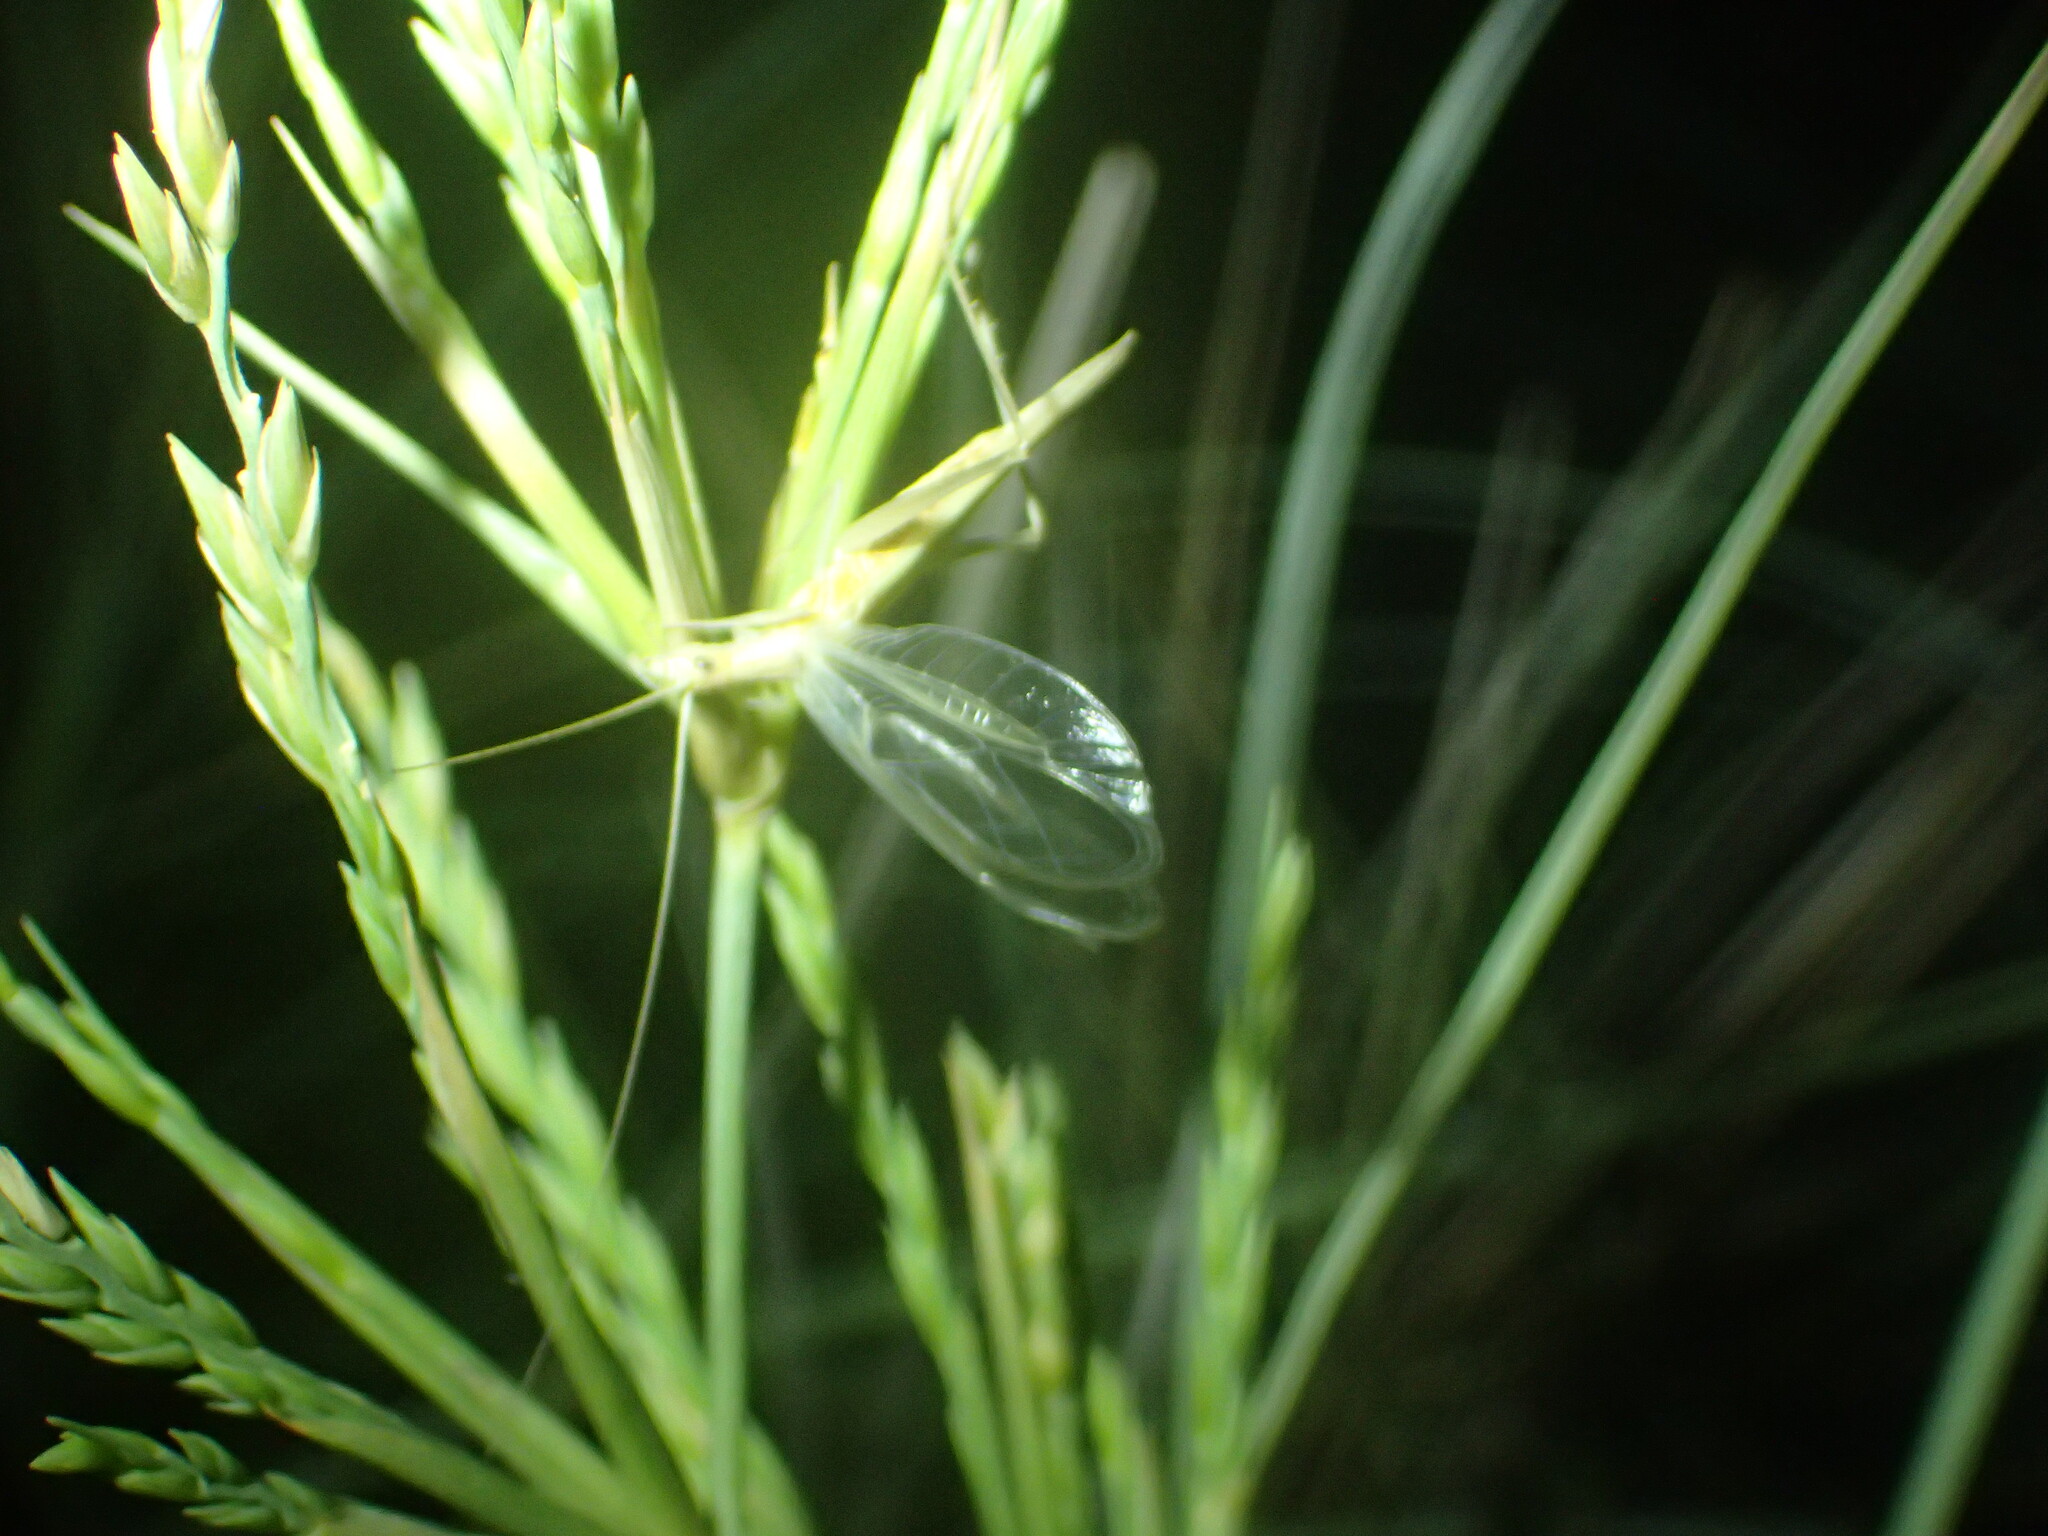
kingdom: Animalia
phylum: Arthropoda
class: Insecta
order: Orthoptera
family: Gryllidae
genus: Oecanthus
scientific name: Oecanthus adyeri
